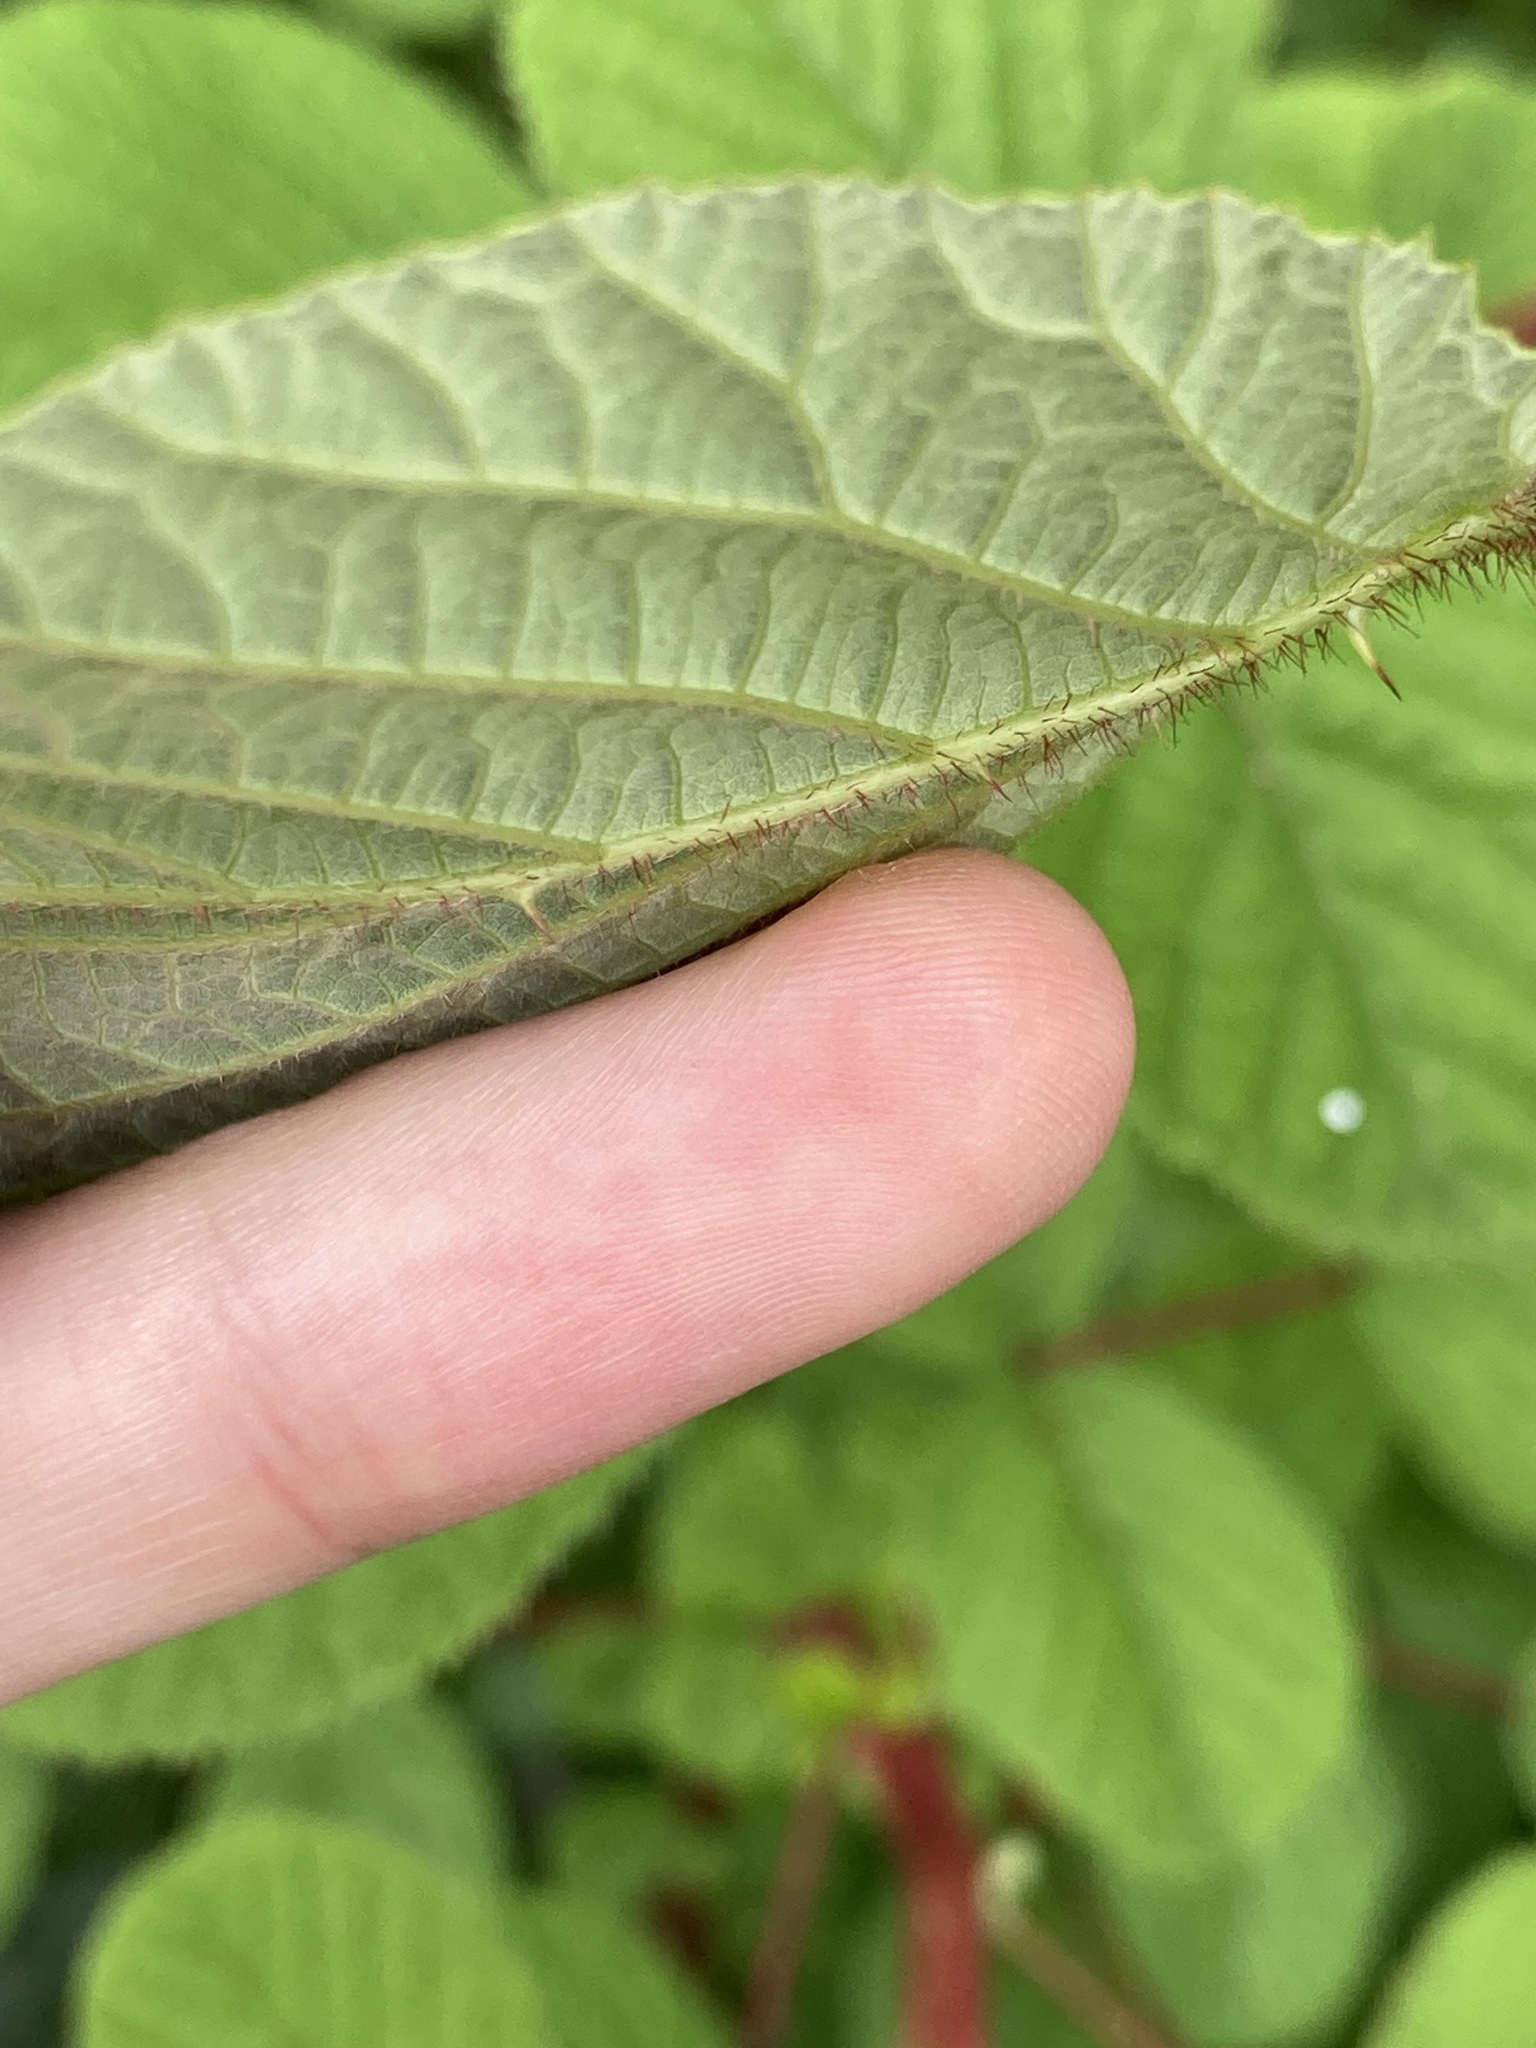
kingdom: Plantae
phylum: Tracheophyta
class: Magnoliopsida
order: Rosales
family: Rosaceae
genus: Rubus
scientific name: Rubus ellipticus
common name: Cheeseberry
